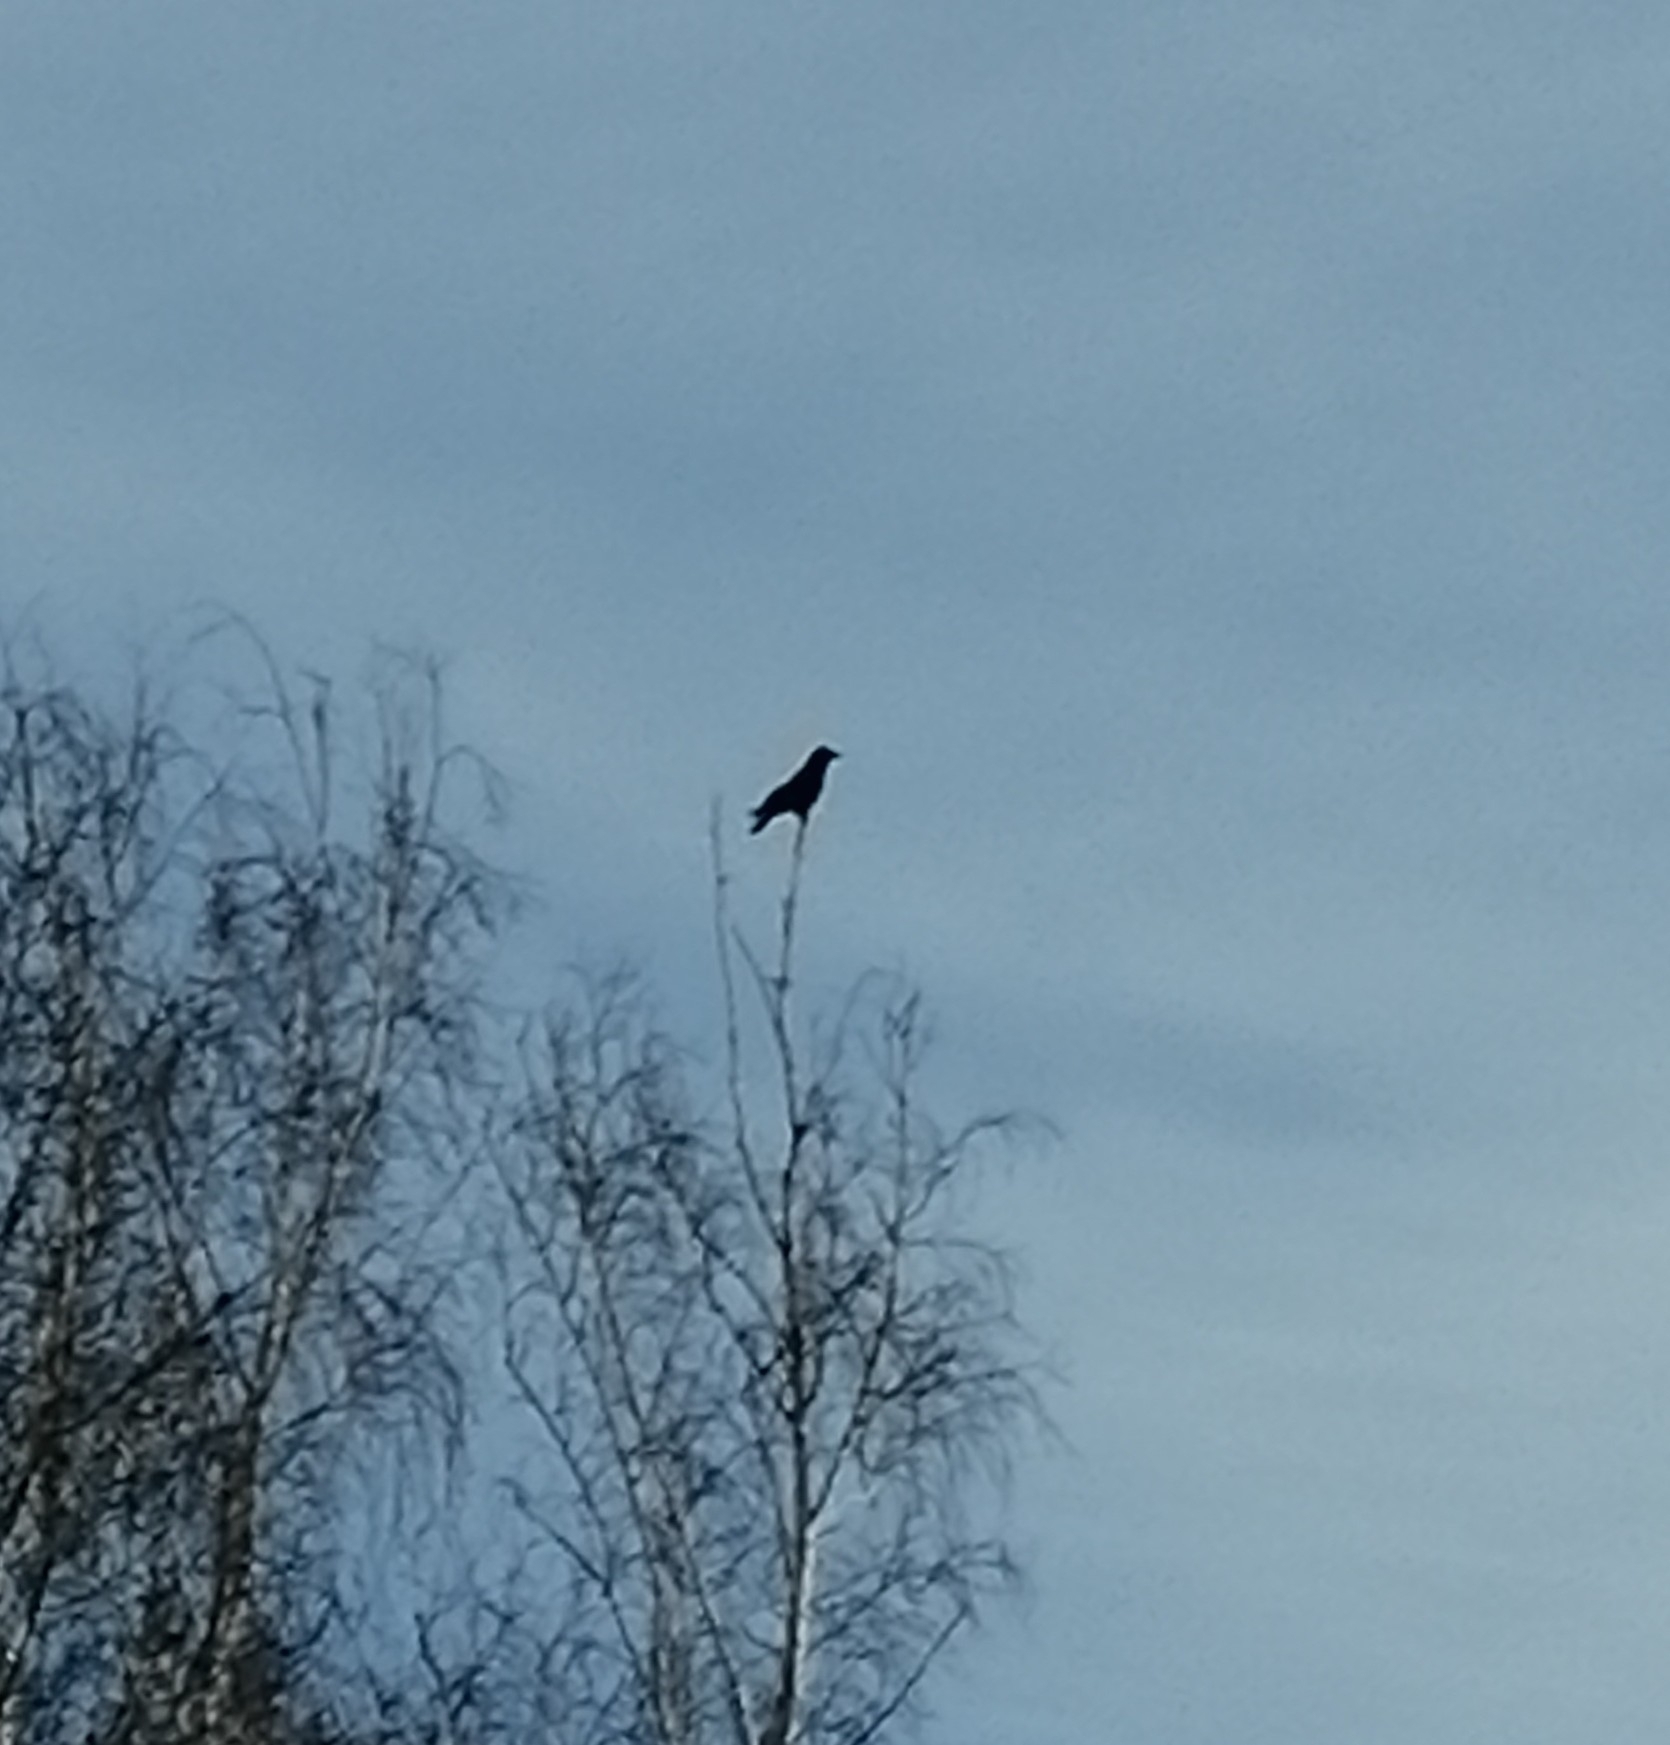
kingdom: Animalia
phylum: Chordata
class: Aves
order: Passeriformes
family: Corvidae
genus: Corvus
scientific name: Corvus corone
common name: Carrion crow
